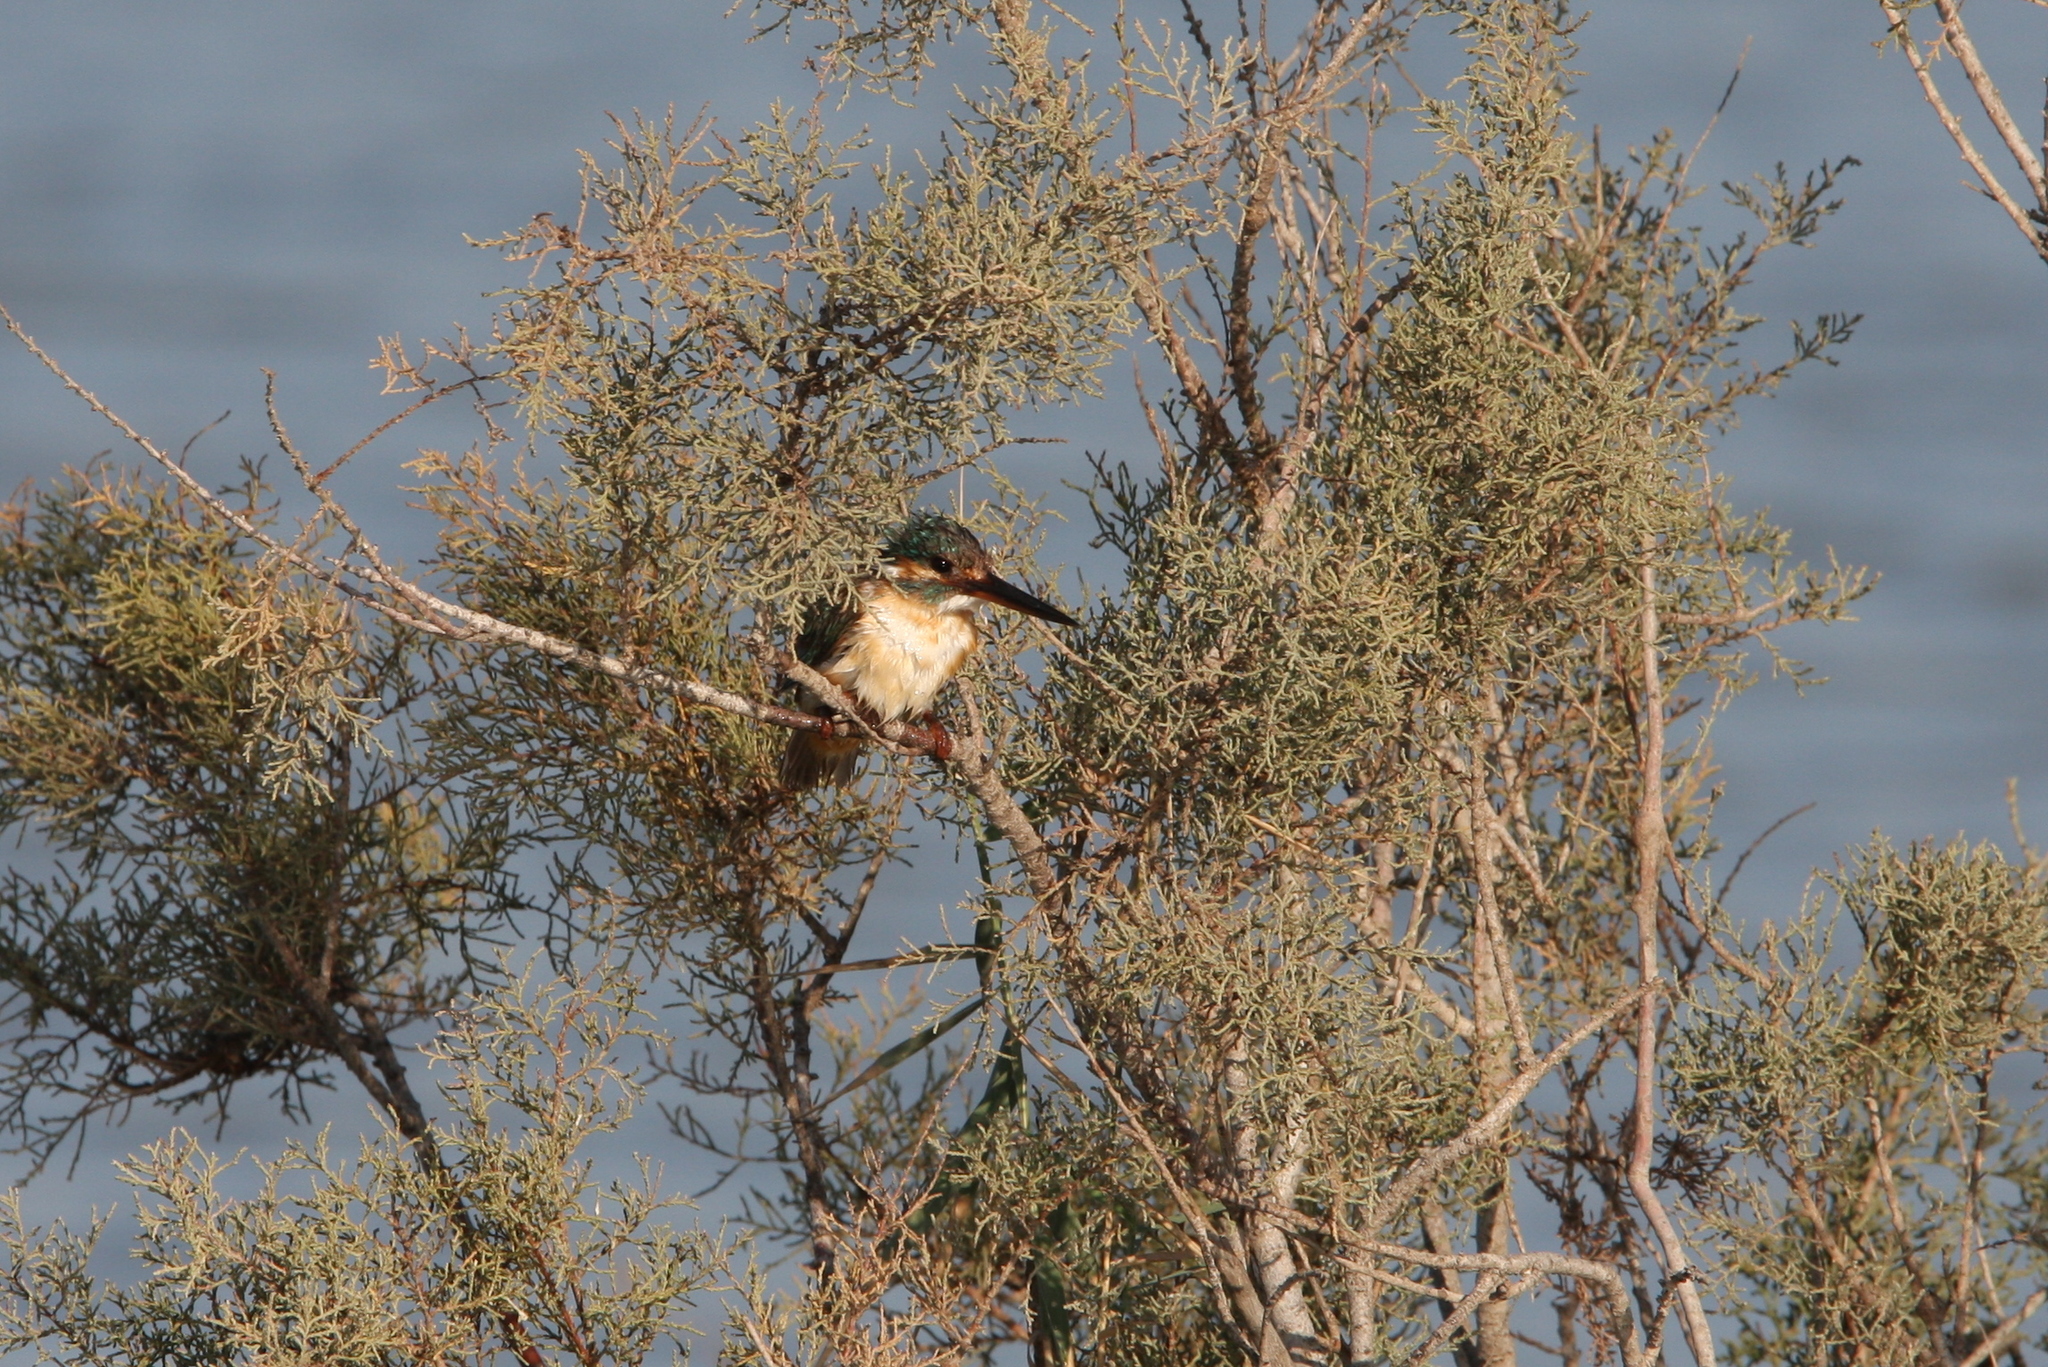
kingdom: Animalia
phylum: Chordata
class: Aves
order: Coraciiformes
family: Alcedinidae
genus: Alcedo
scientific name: Alcedo atthis
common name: Common kingfisher
